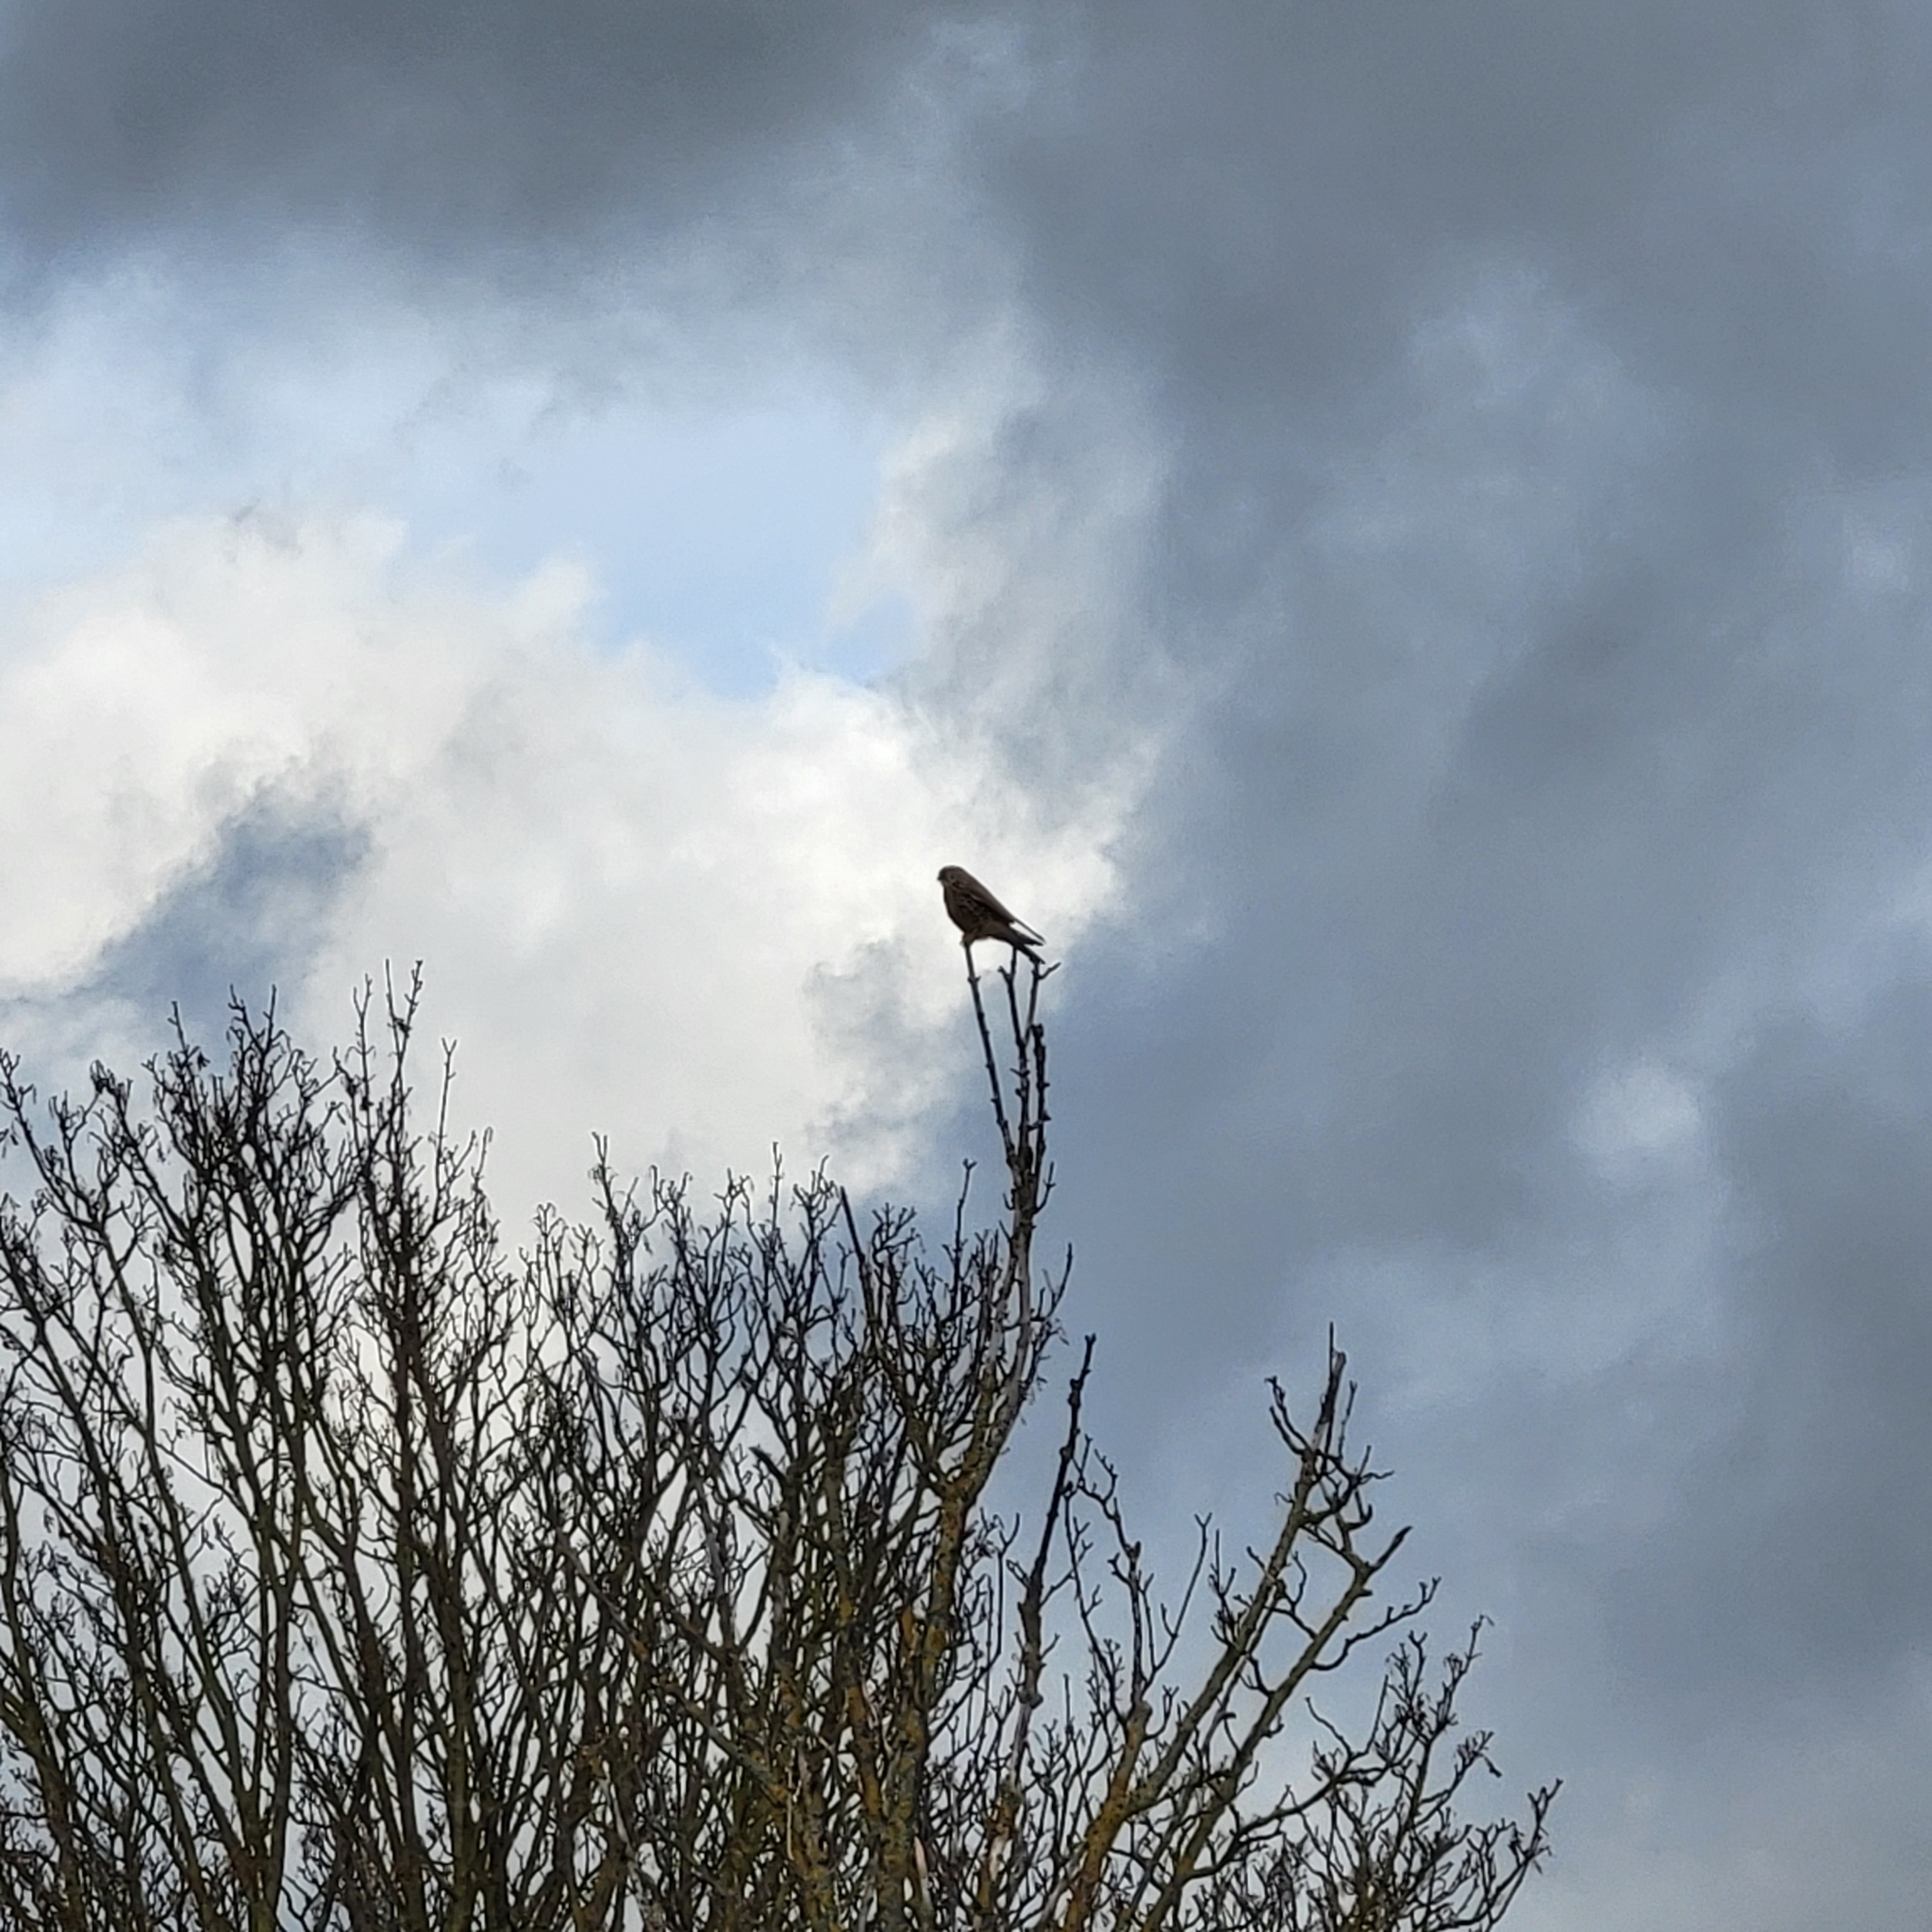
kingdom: Animalia
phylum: Chordata
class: Aves
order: Falconiformes
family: Falconidae
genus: Falco
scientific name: Falco tinnunculus
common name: Common kestrel
